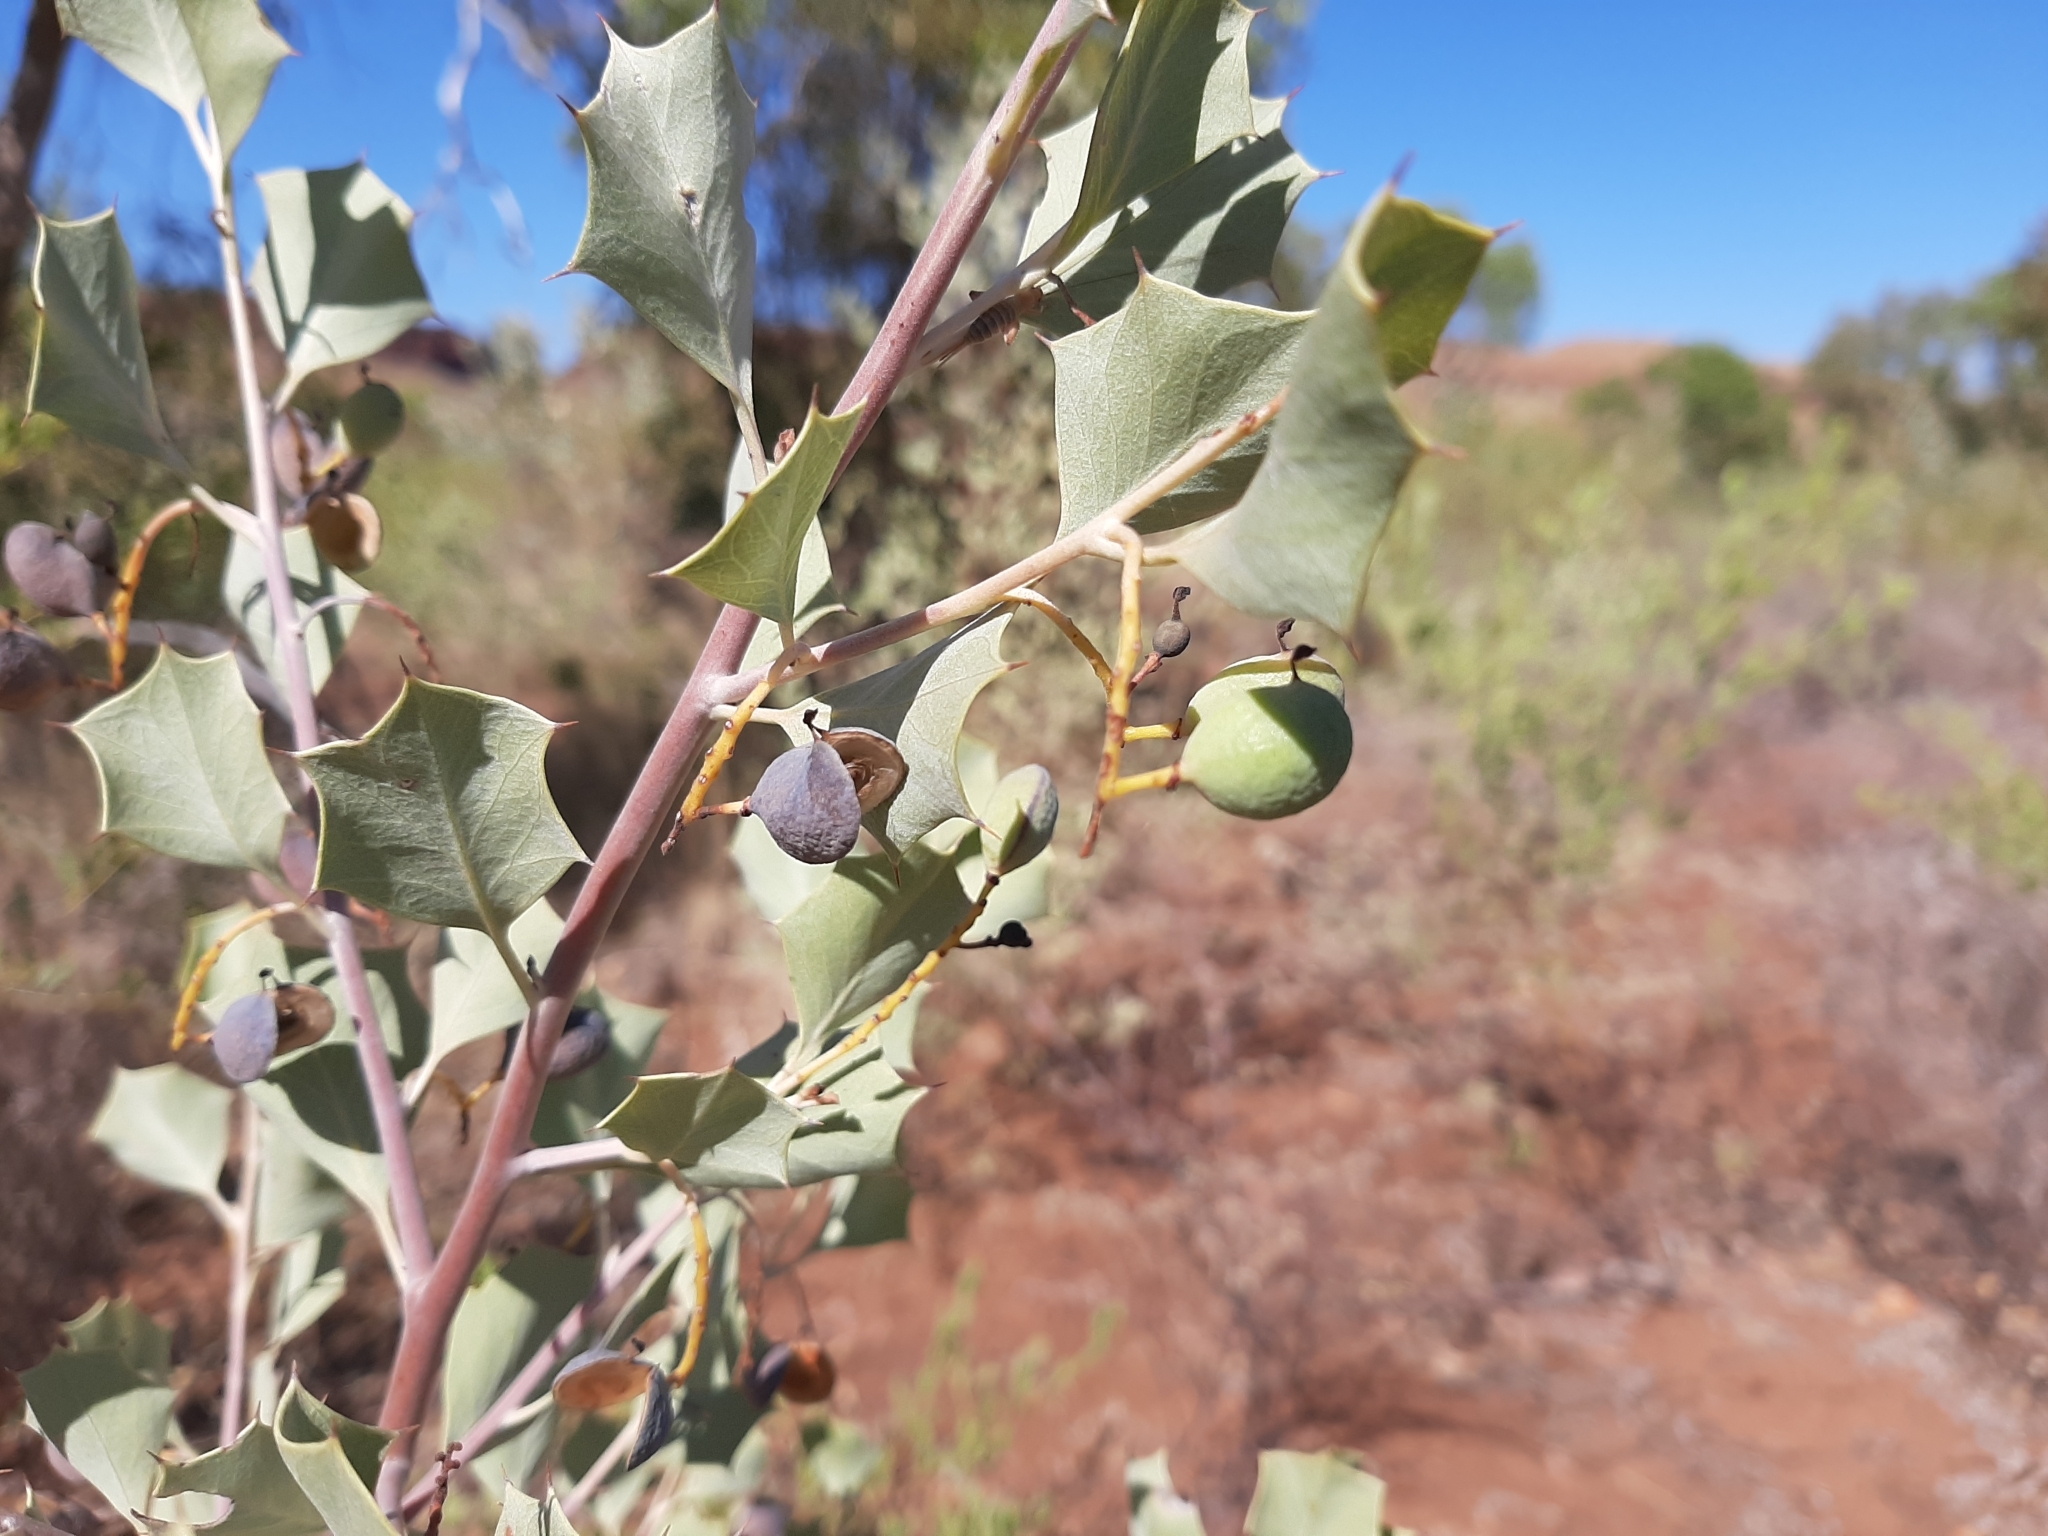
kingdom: Plantae
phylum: Tracheophyta
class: Magnoliopsida
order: Proteales
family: Proteaceae
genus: Grevillea
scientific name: Grevillea wickhamii
